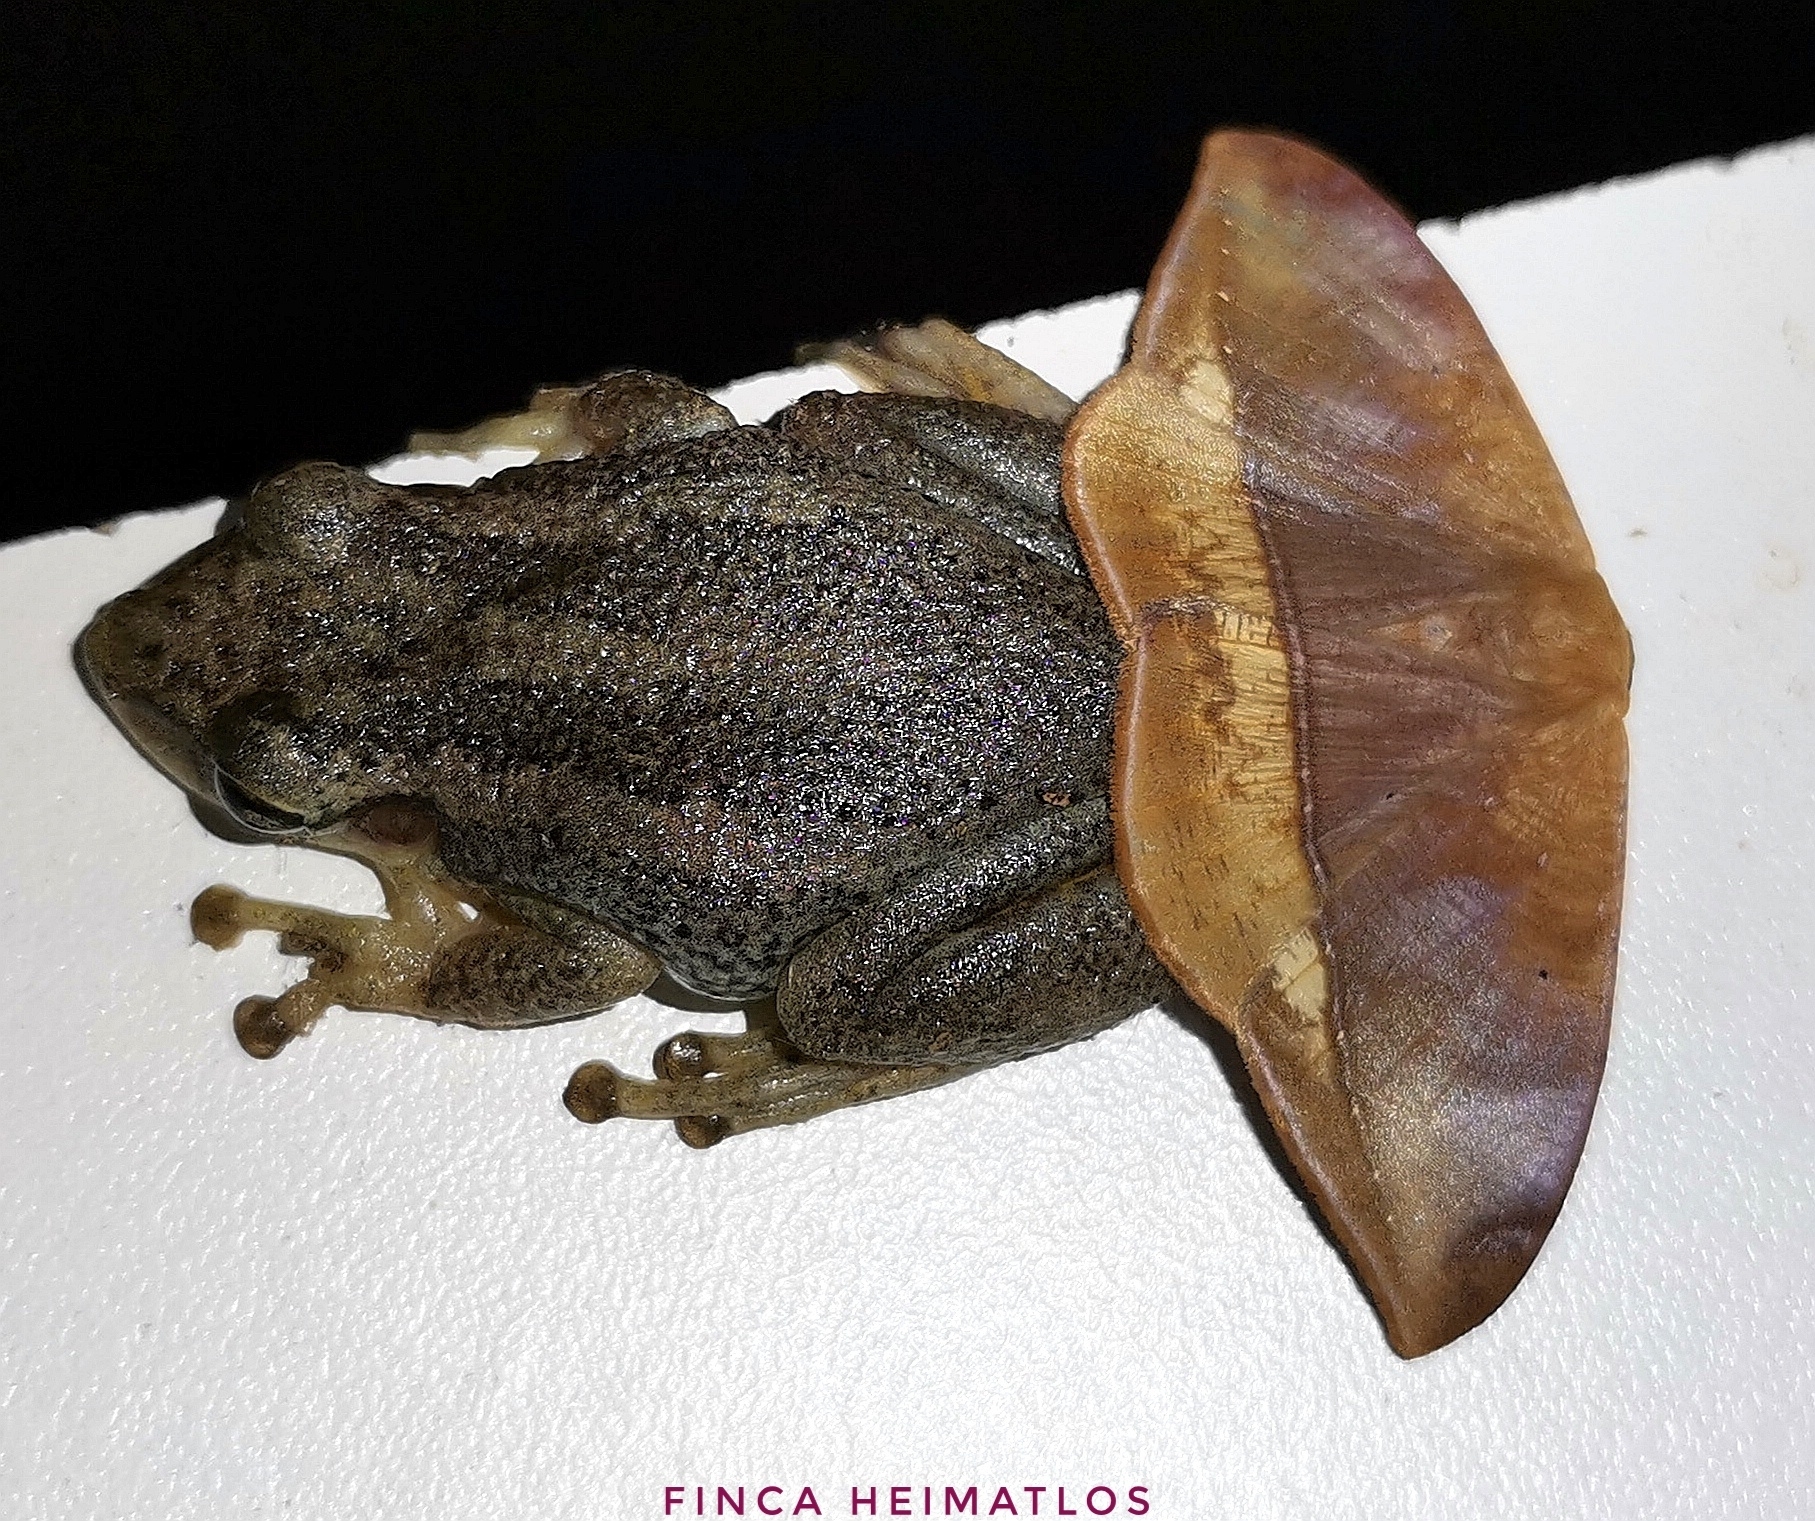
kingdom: Animalia
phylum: Chordata
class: Amphibia
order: Anura
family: Hylidae
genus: Scinax
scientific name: Scinax ruber
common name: Red snouted treefrog
